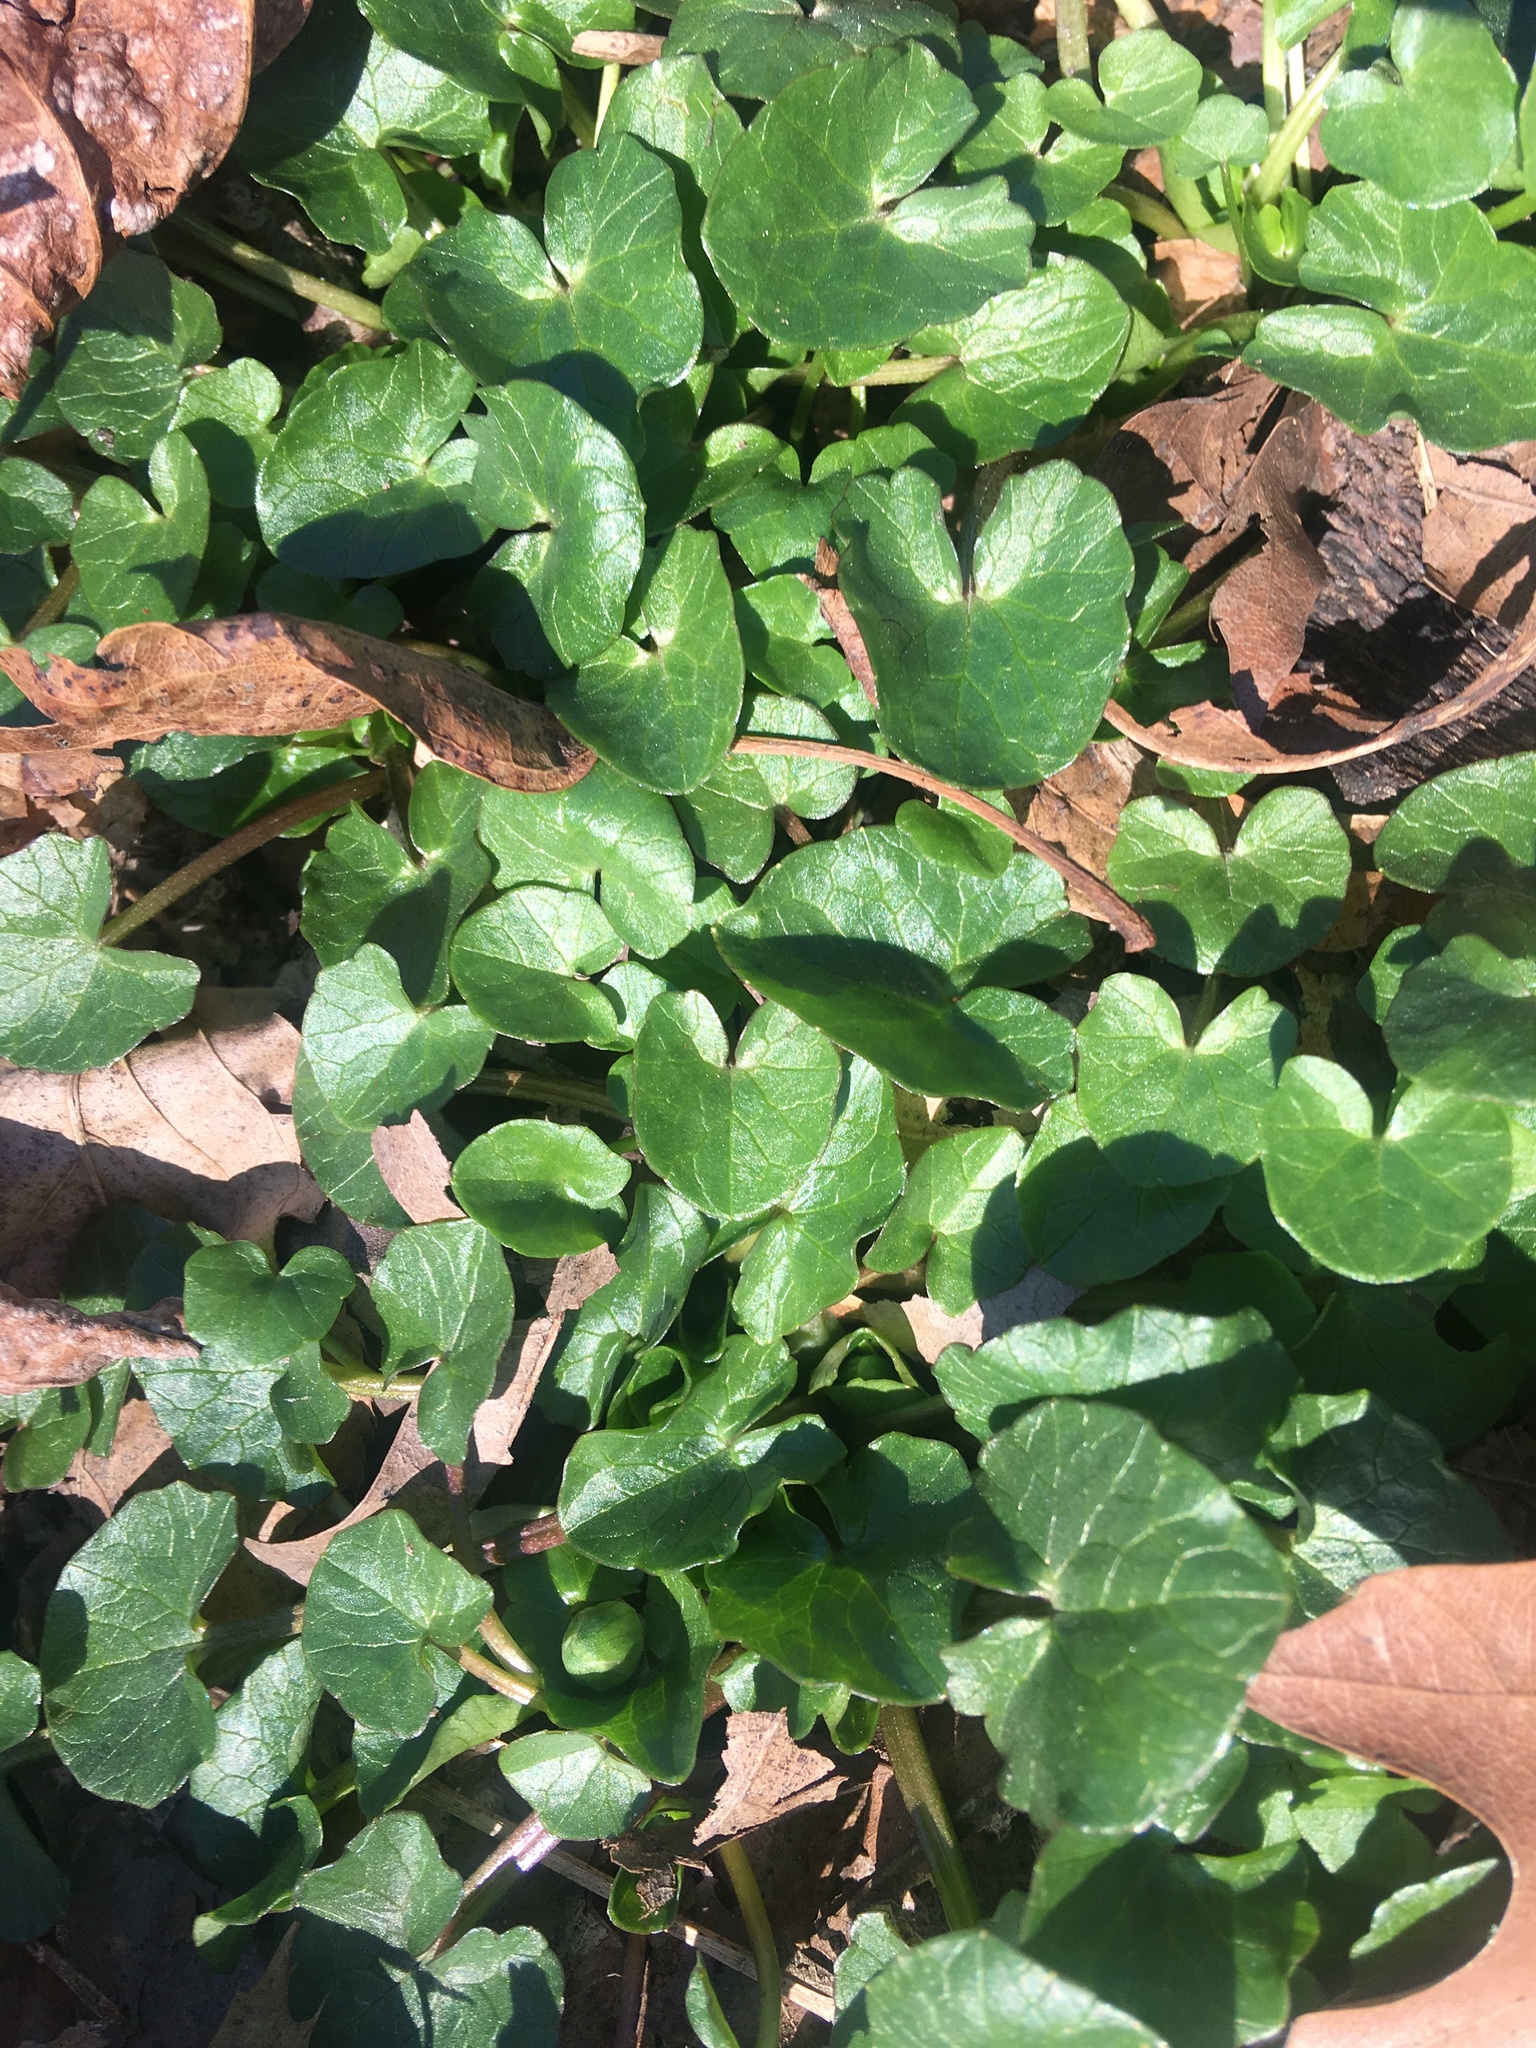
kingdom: Plantae
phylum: Tracheophyta
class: Magnoliopsida
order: Ranunculales
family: Ranunculaceae
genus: Ficaria
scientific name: Ficaria verna
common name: Lesser celandine
